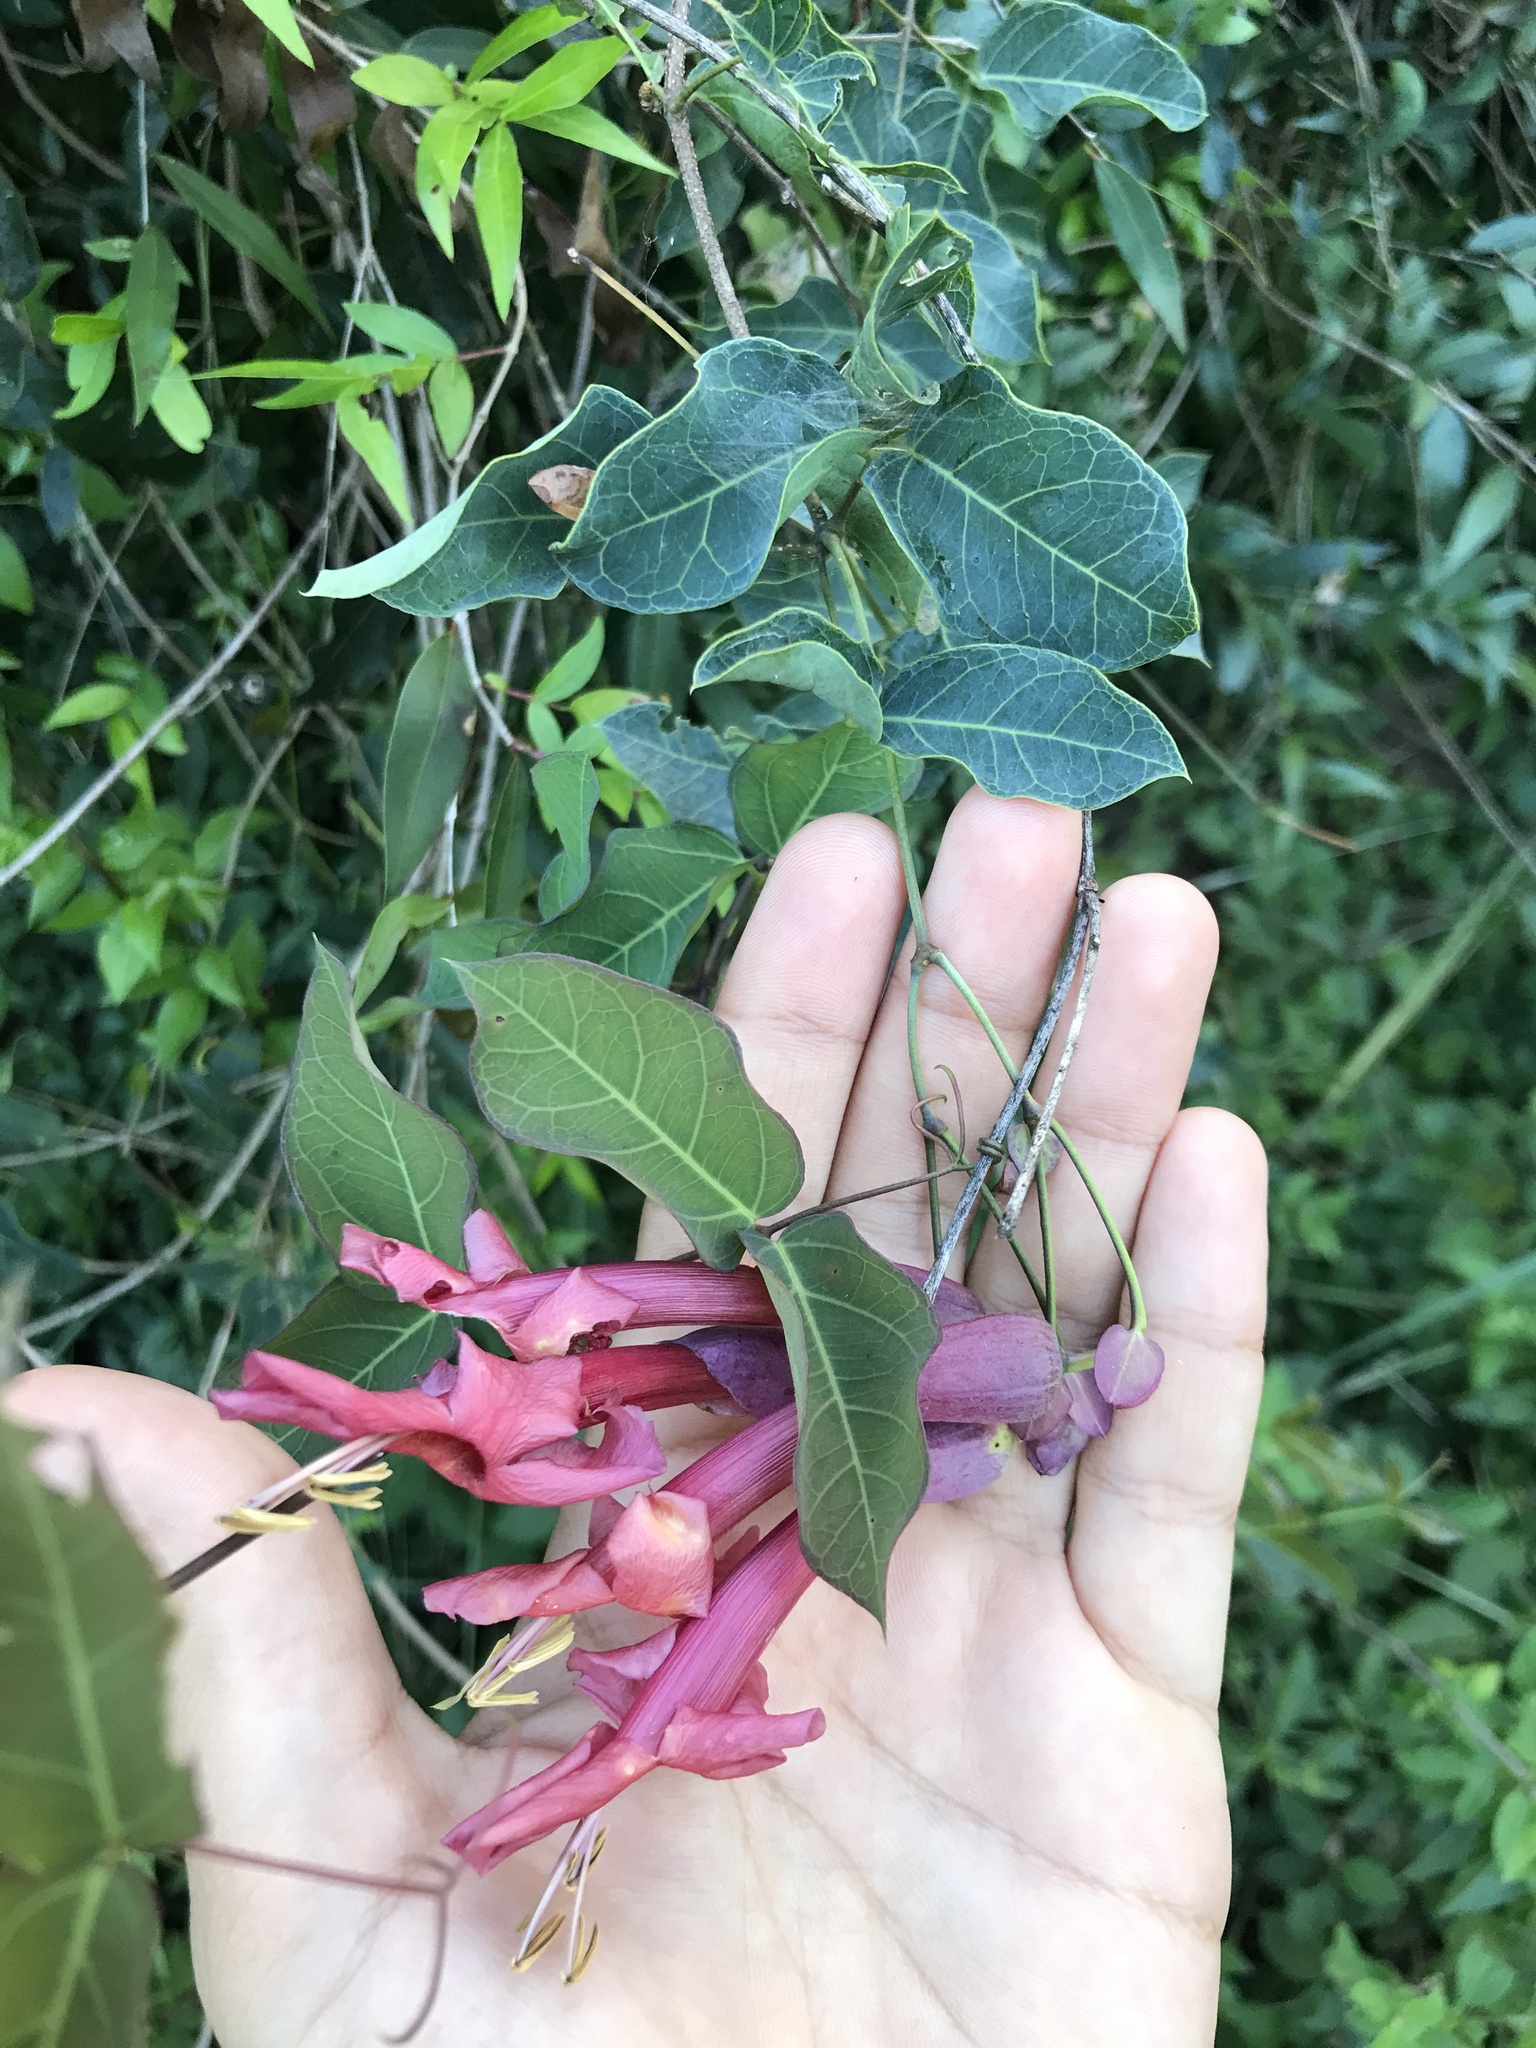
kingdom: Plantae
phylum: Tracheophyta
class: Magnoliopsida
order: Lamiales
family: Bignoniaceae
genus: Dolichandra
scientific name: Dolichandra cynanchoides
